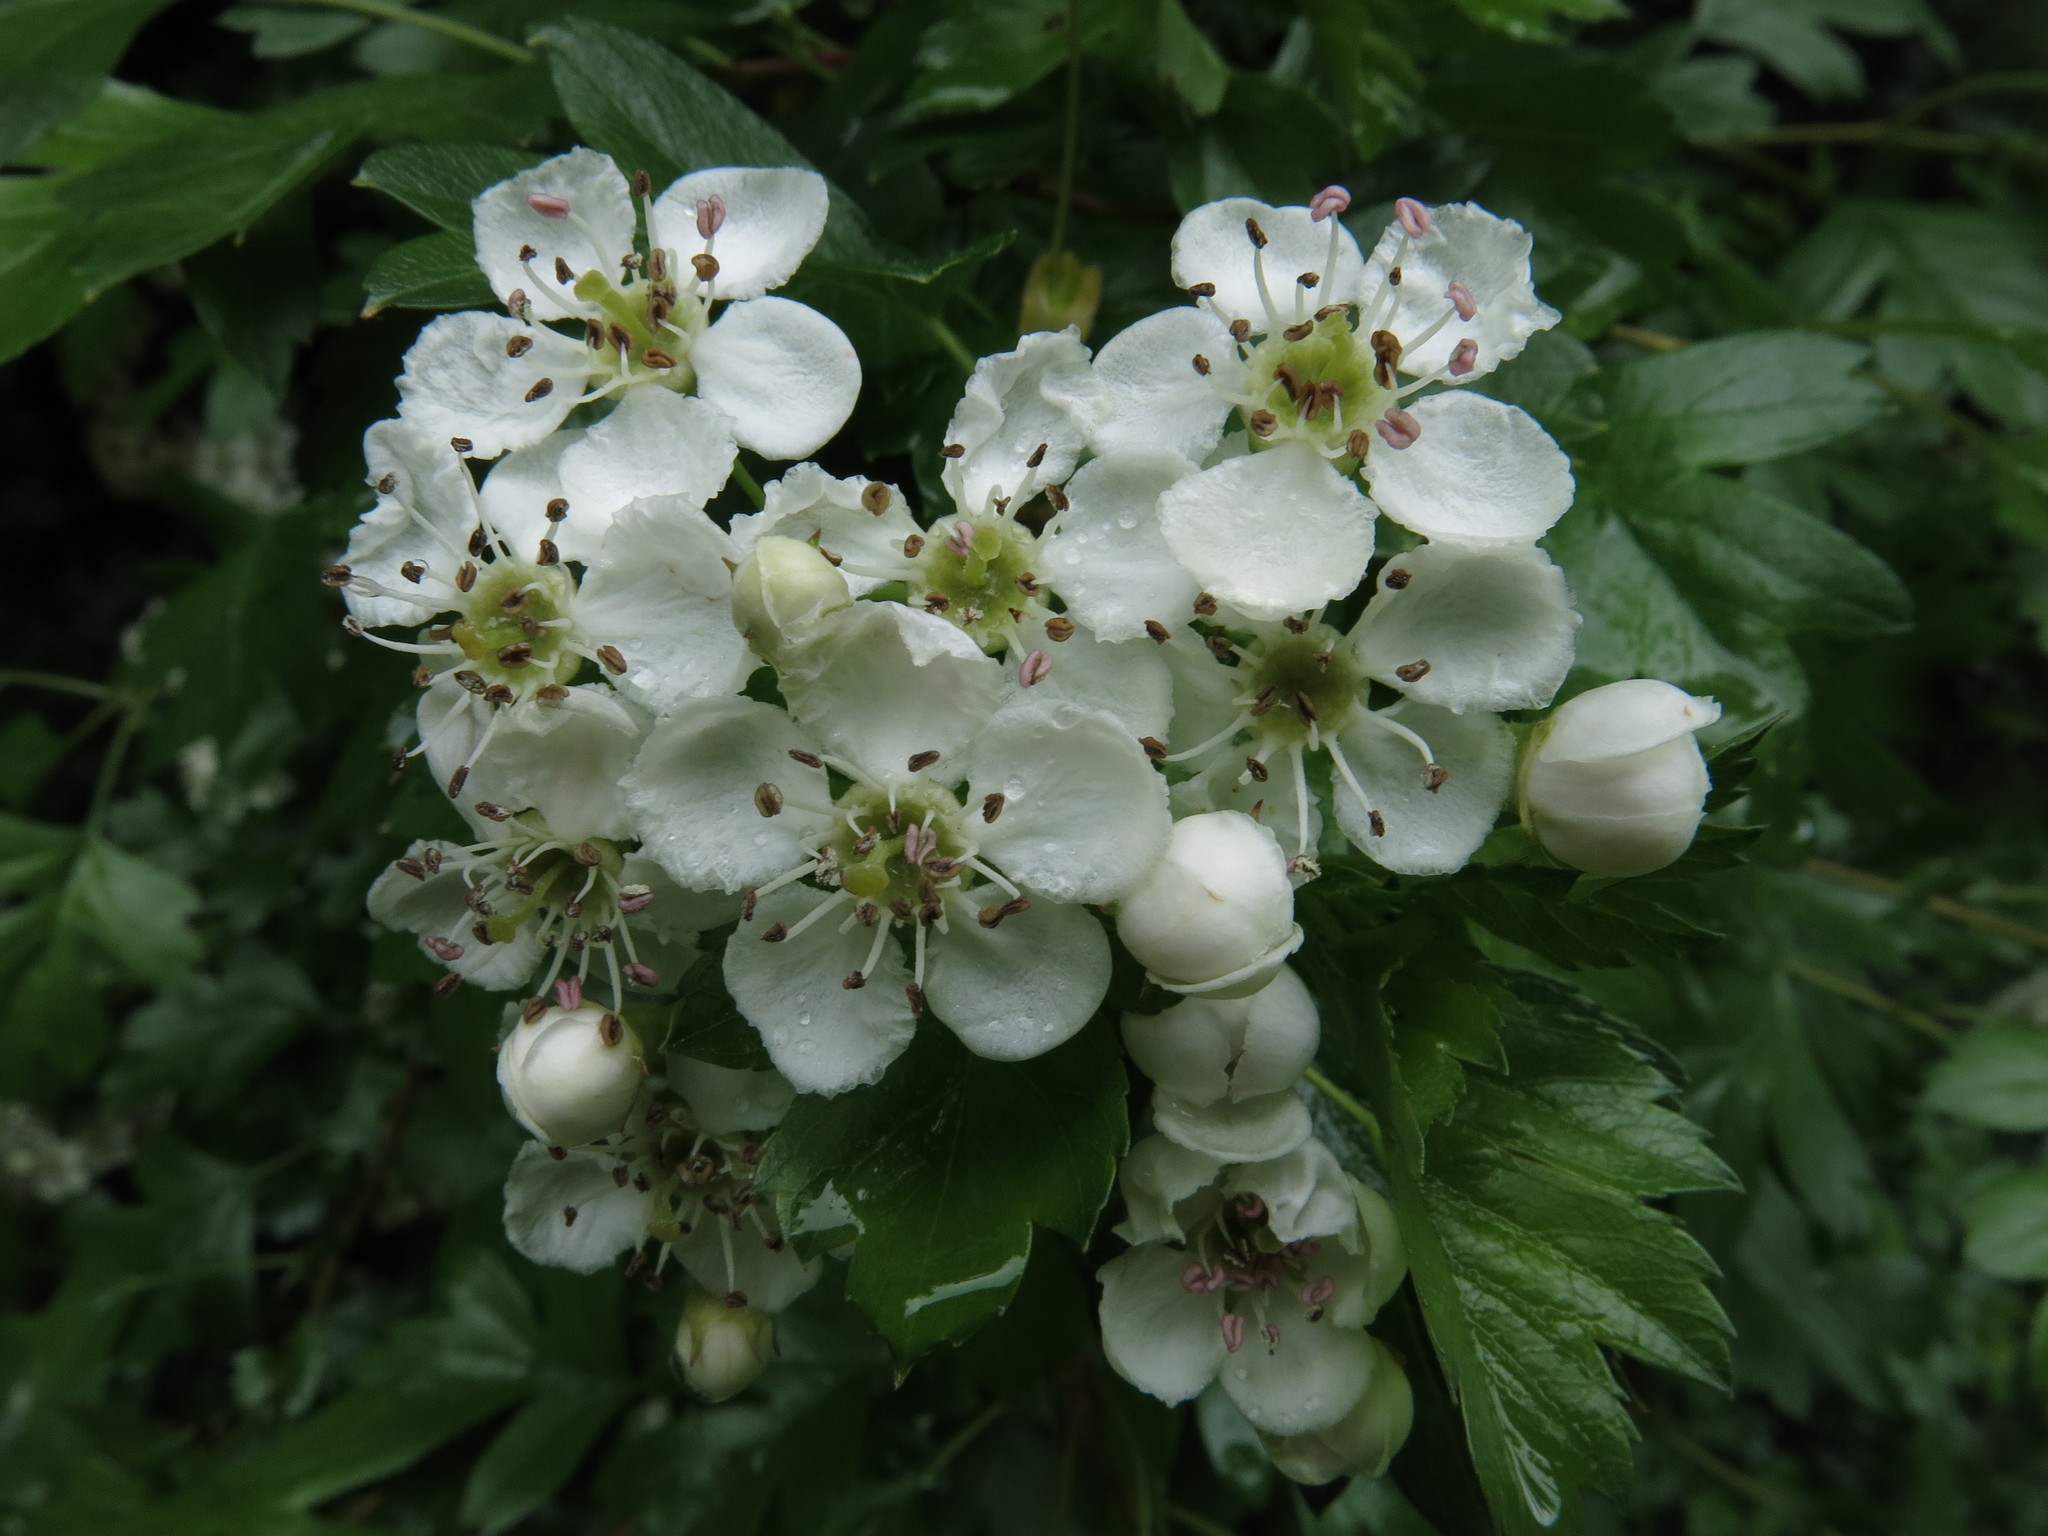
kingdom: Plantae
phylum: Tracheophyta
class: Magnoliopsida
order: Rosales
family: Rosaceae
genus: Crataegus
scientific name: Crataegus monogyna
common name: Hawthorn
